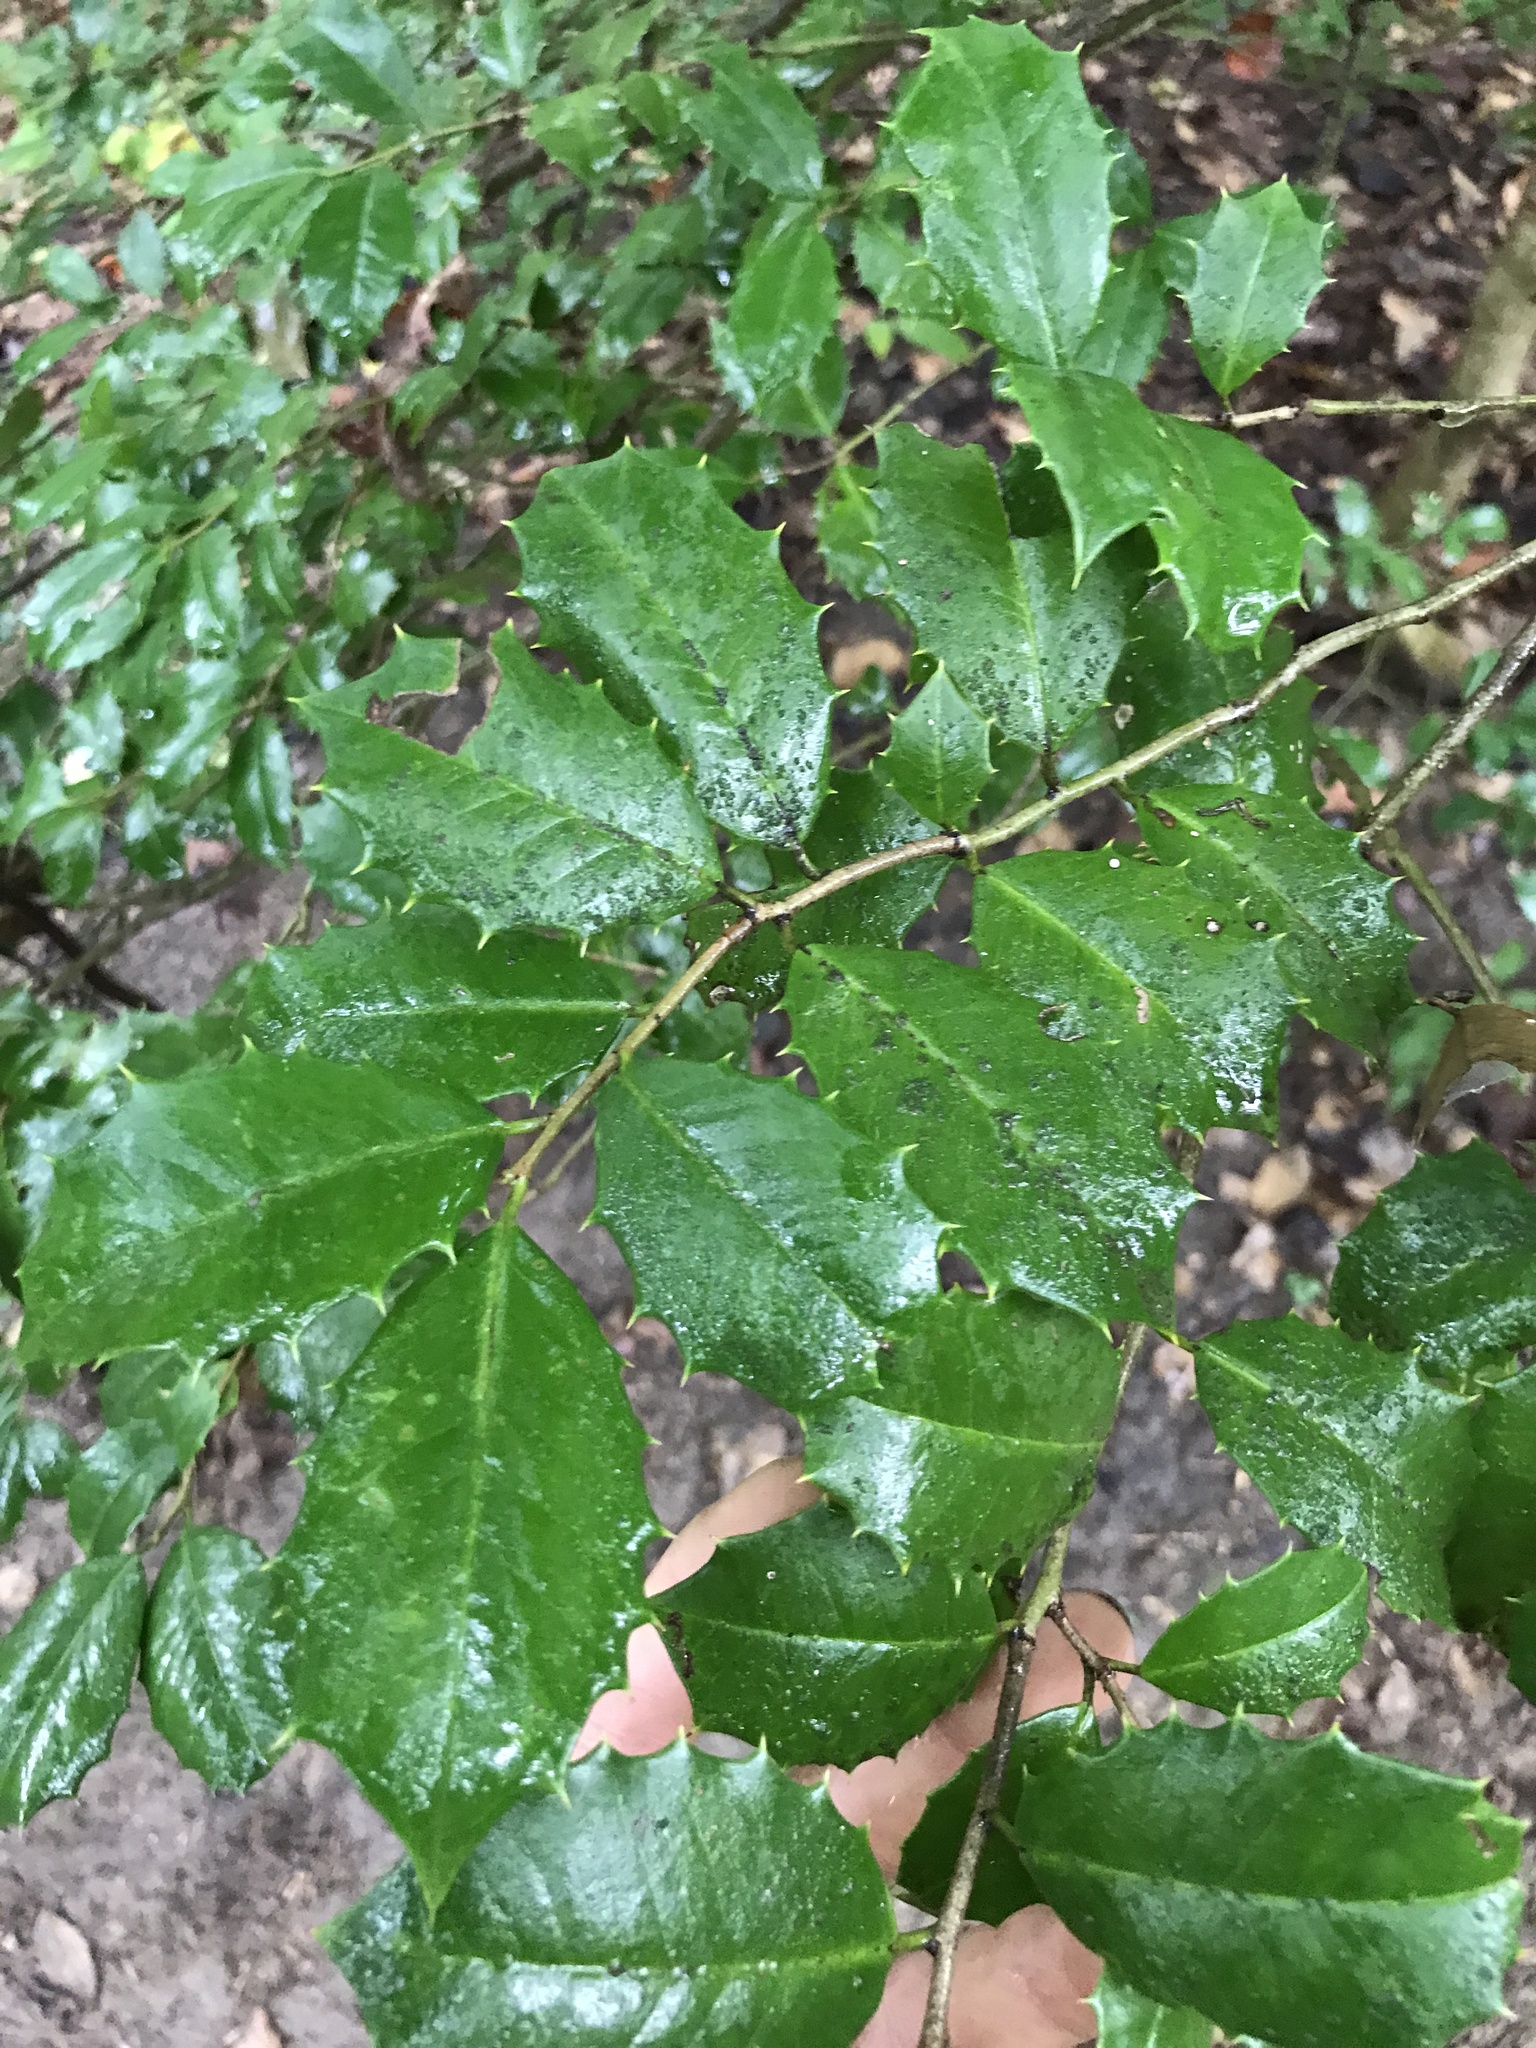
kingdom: Plantae
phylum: Tracheophyta
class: Magnoliopsida
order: Aquifoliales
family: Aquifoliaceae
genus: Ilex
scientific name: Ilex opaca
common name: American holly
